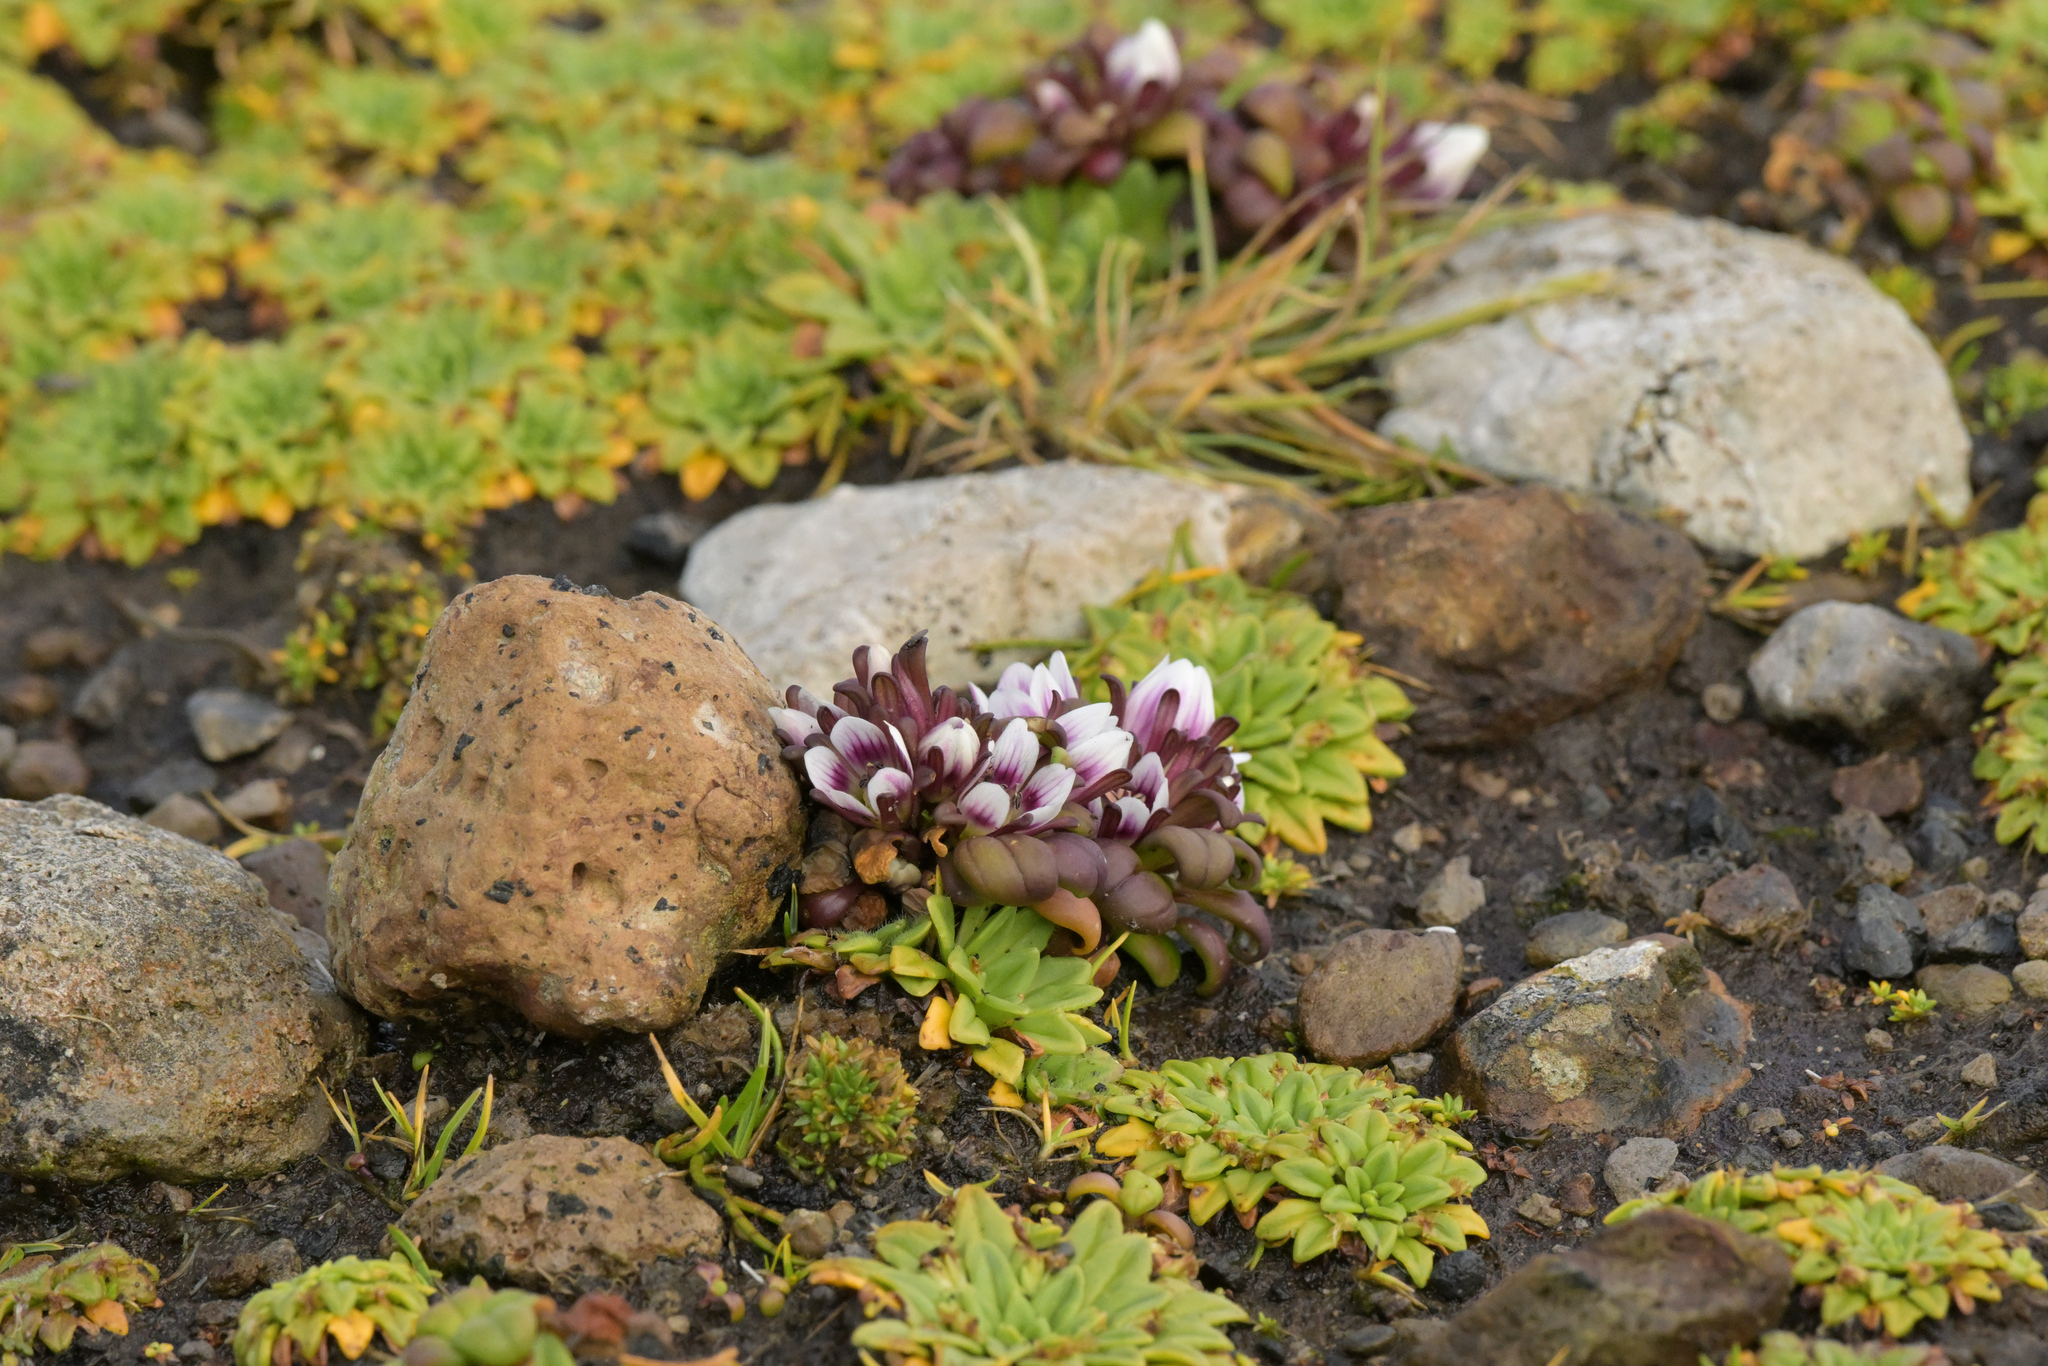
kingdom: Plantae
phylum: Tracheophyta
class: Magnoliopsida
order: Gentianales
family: Gentianaceae
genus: Gentianella
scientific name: Gentianella cerina
